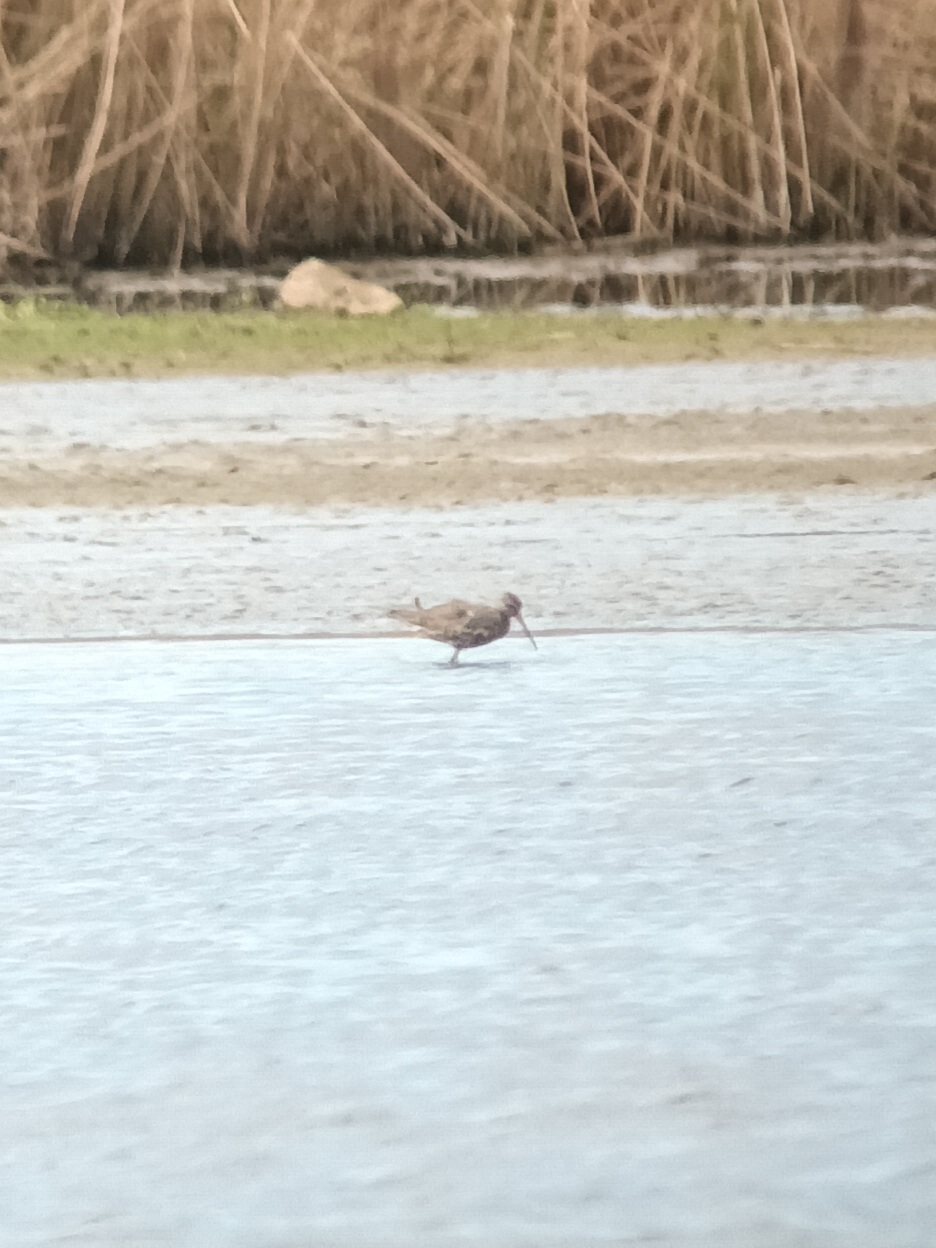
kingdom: Animalia
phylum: Chordata
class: Aves
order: Charadriiformes
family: Scolopacidae
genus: Tringa
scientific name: Tringa erythropus
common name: Spotted redshank
